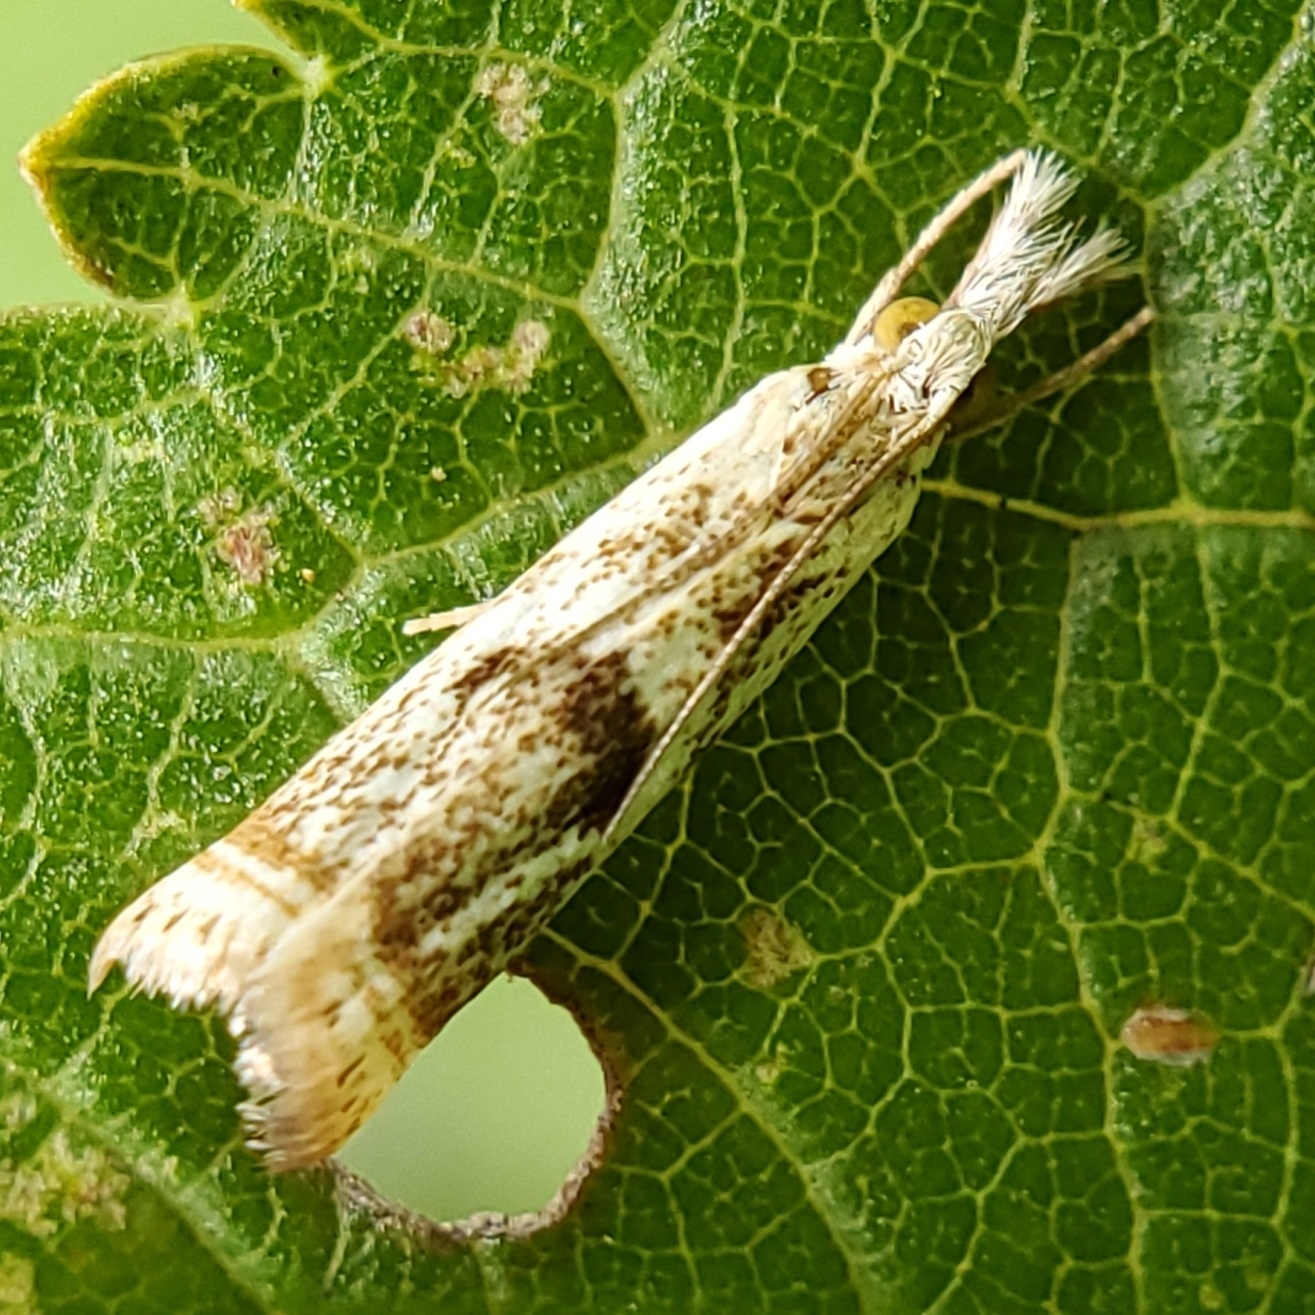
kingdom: Animalia
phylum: Arthropoda
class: Insecta
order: Lepidoptera
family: Crambidae
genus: Microcrambus
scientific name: Microcrambus elegans
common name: Elegant grass-veneer
